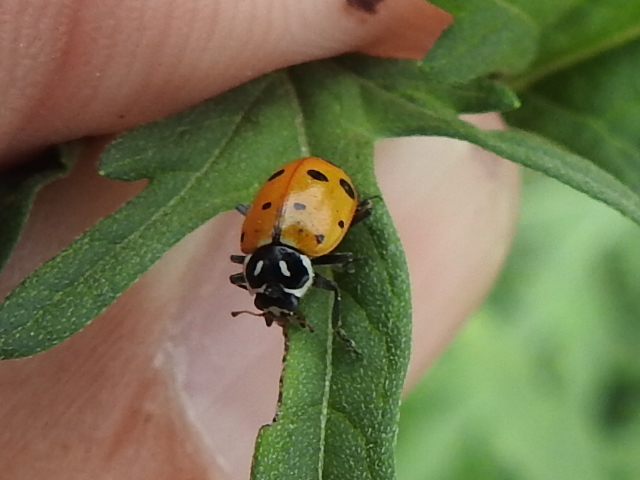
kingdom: Animalia
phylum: Arthropoda
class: Insecta
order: Coleoptera
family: Coccinellidae
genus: Hippodamia
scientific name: Hippodamia convergens
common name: Convergent lady beetle
